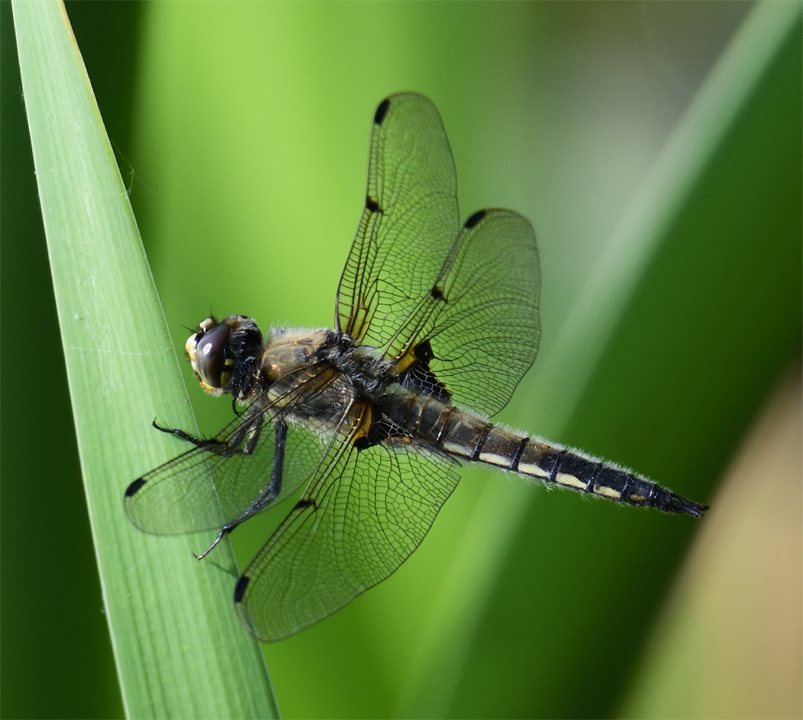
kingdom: Animalia
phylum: Arthropoda
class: Insecta
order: Odonata
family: Libellulidae
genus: Libellula
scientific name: Libellula quadrimaculata
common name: Four-spotted chaser
